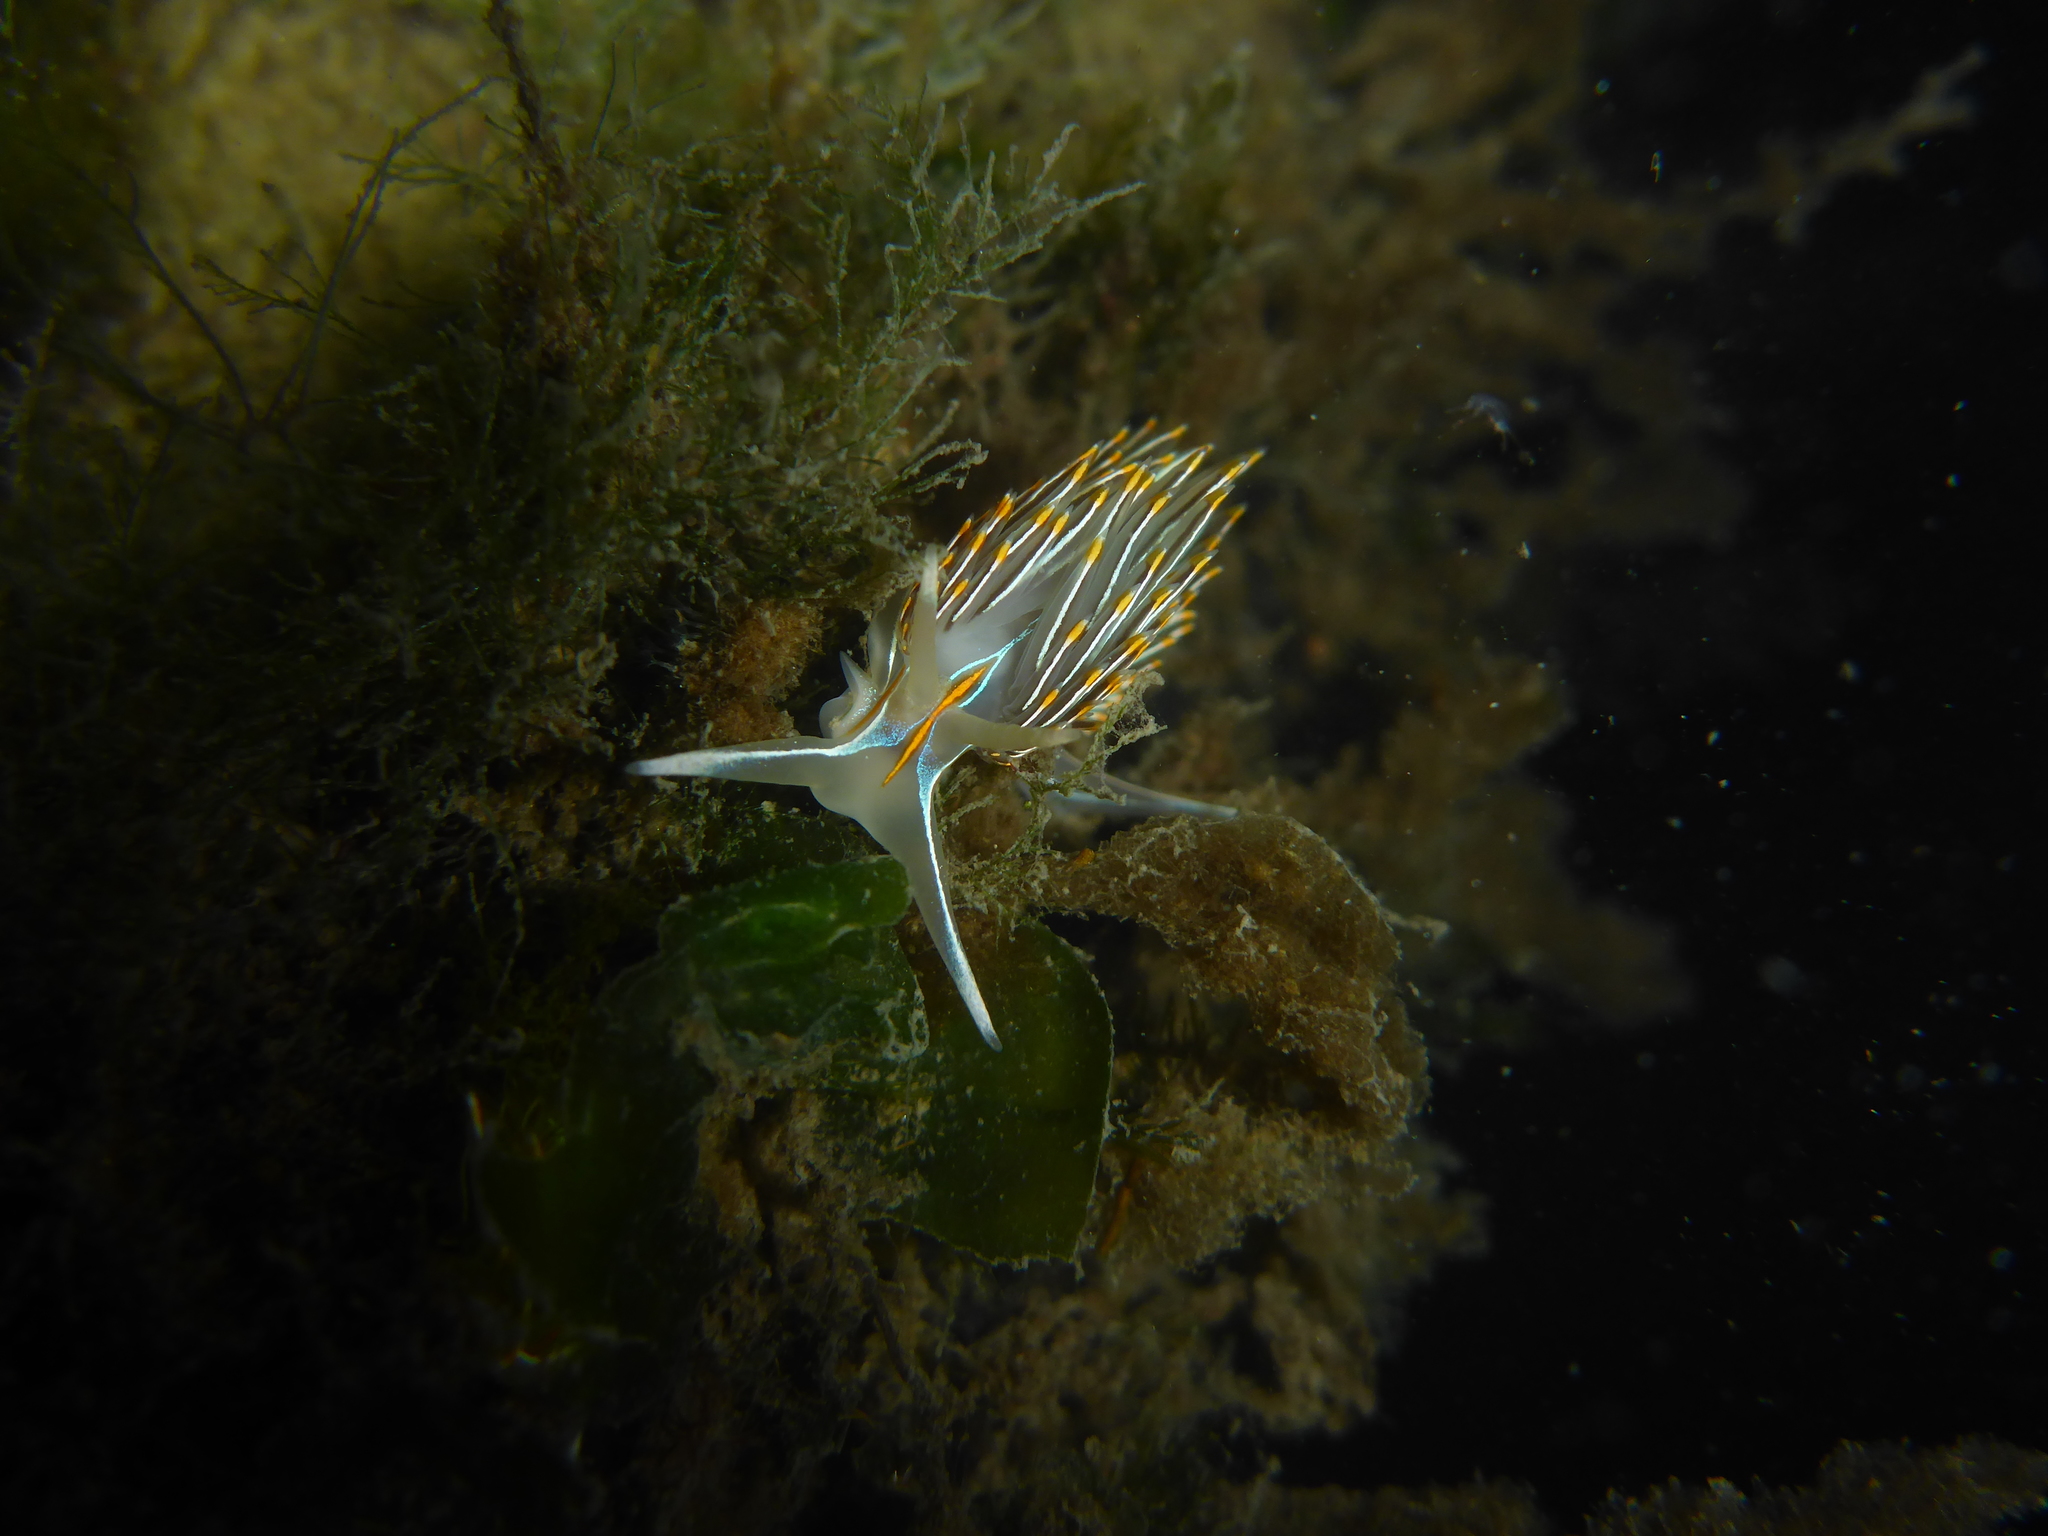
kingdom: Animalia
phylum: Mollusca
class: Gastropoda
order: Nudibranchia
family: Myrrhinidae
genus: Hermissenda
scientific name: Hermissenda crassicornis
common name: Hermissenda
